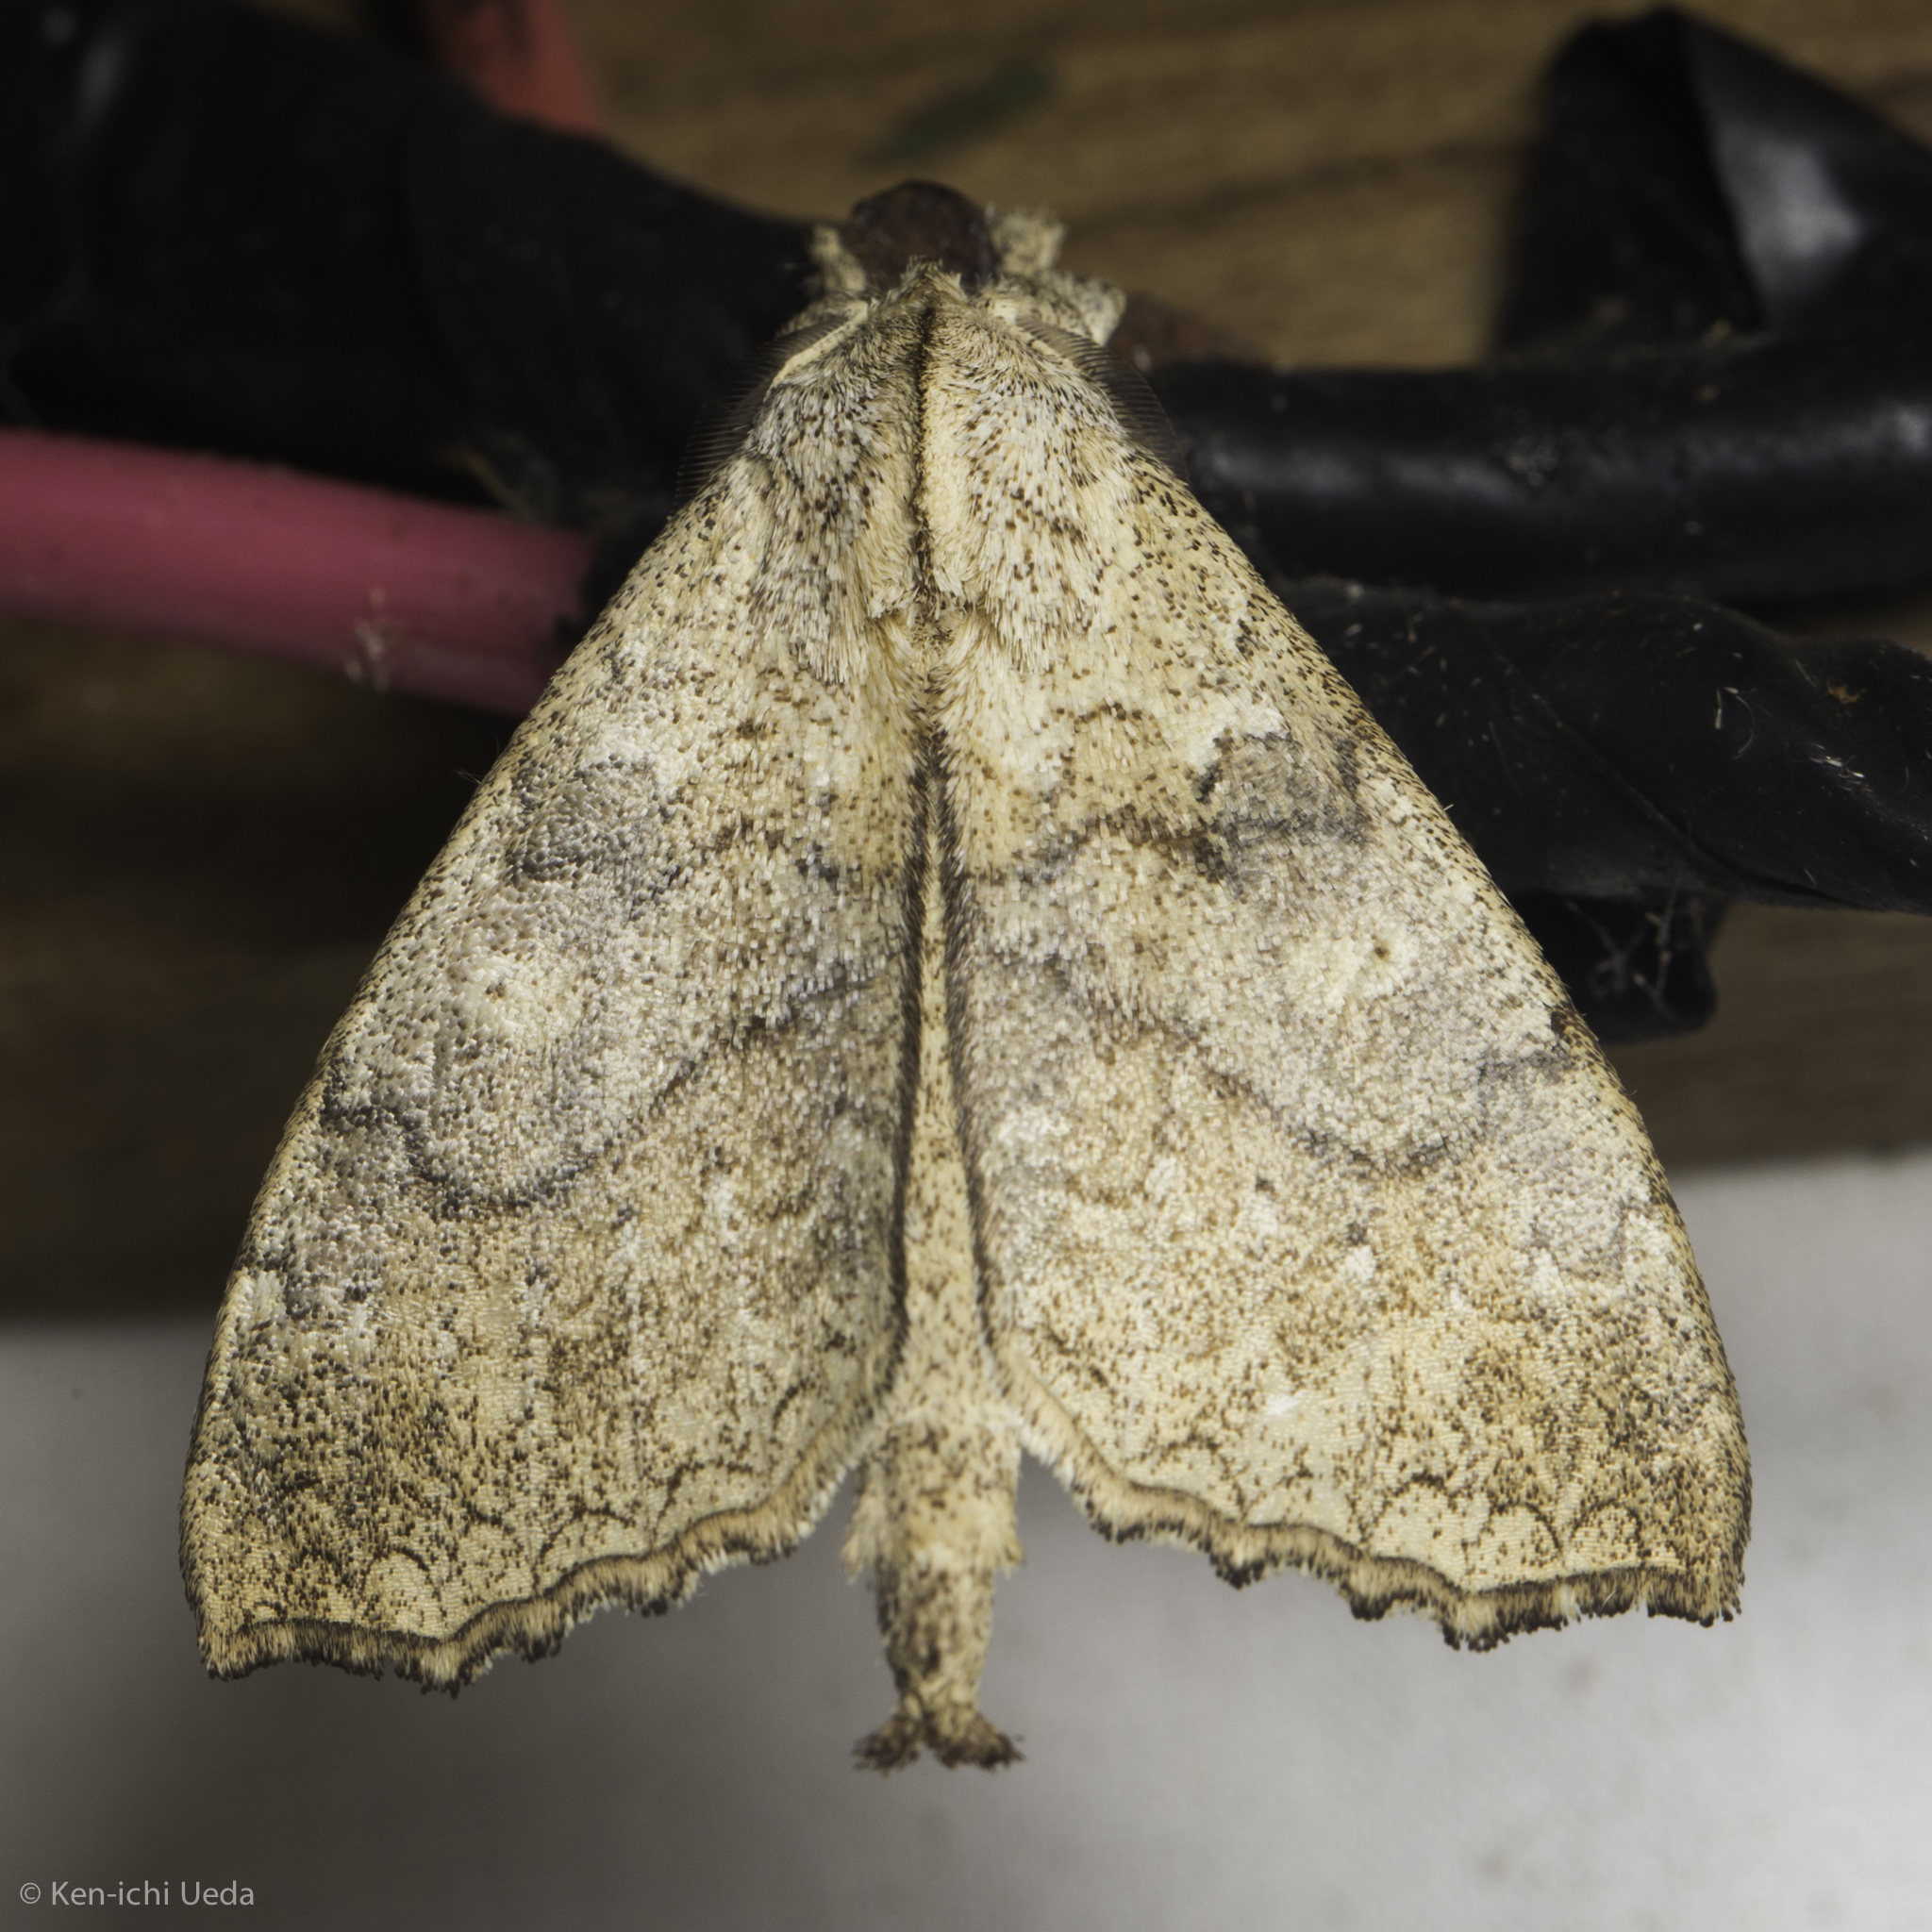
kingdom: Animalia
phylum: Arthropoda
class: Insecta
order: Lepidoptera
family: Apatelodidae
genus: Colabata
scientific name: Colabata Ephoria lybia
